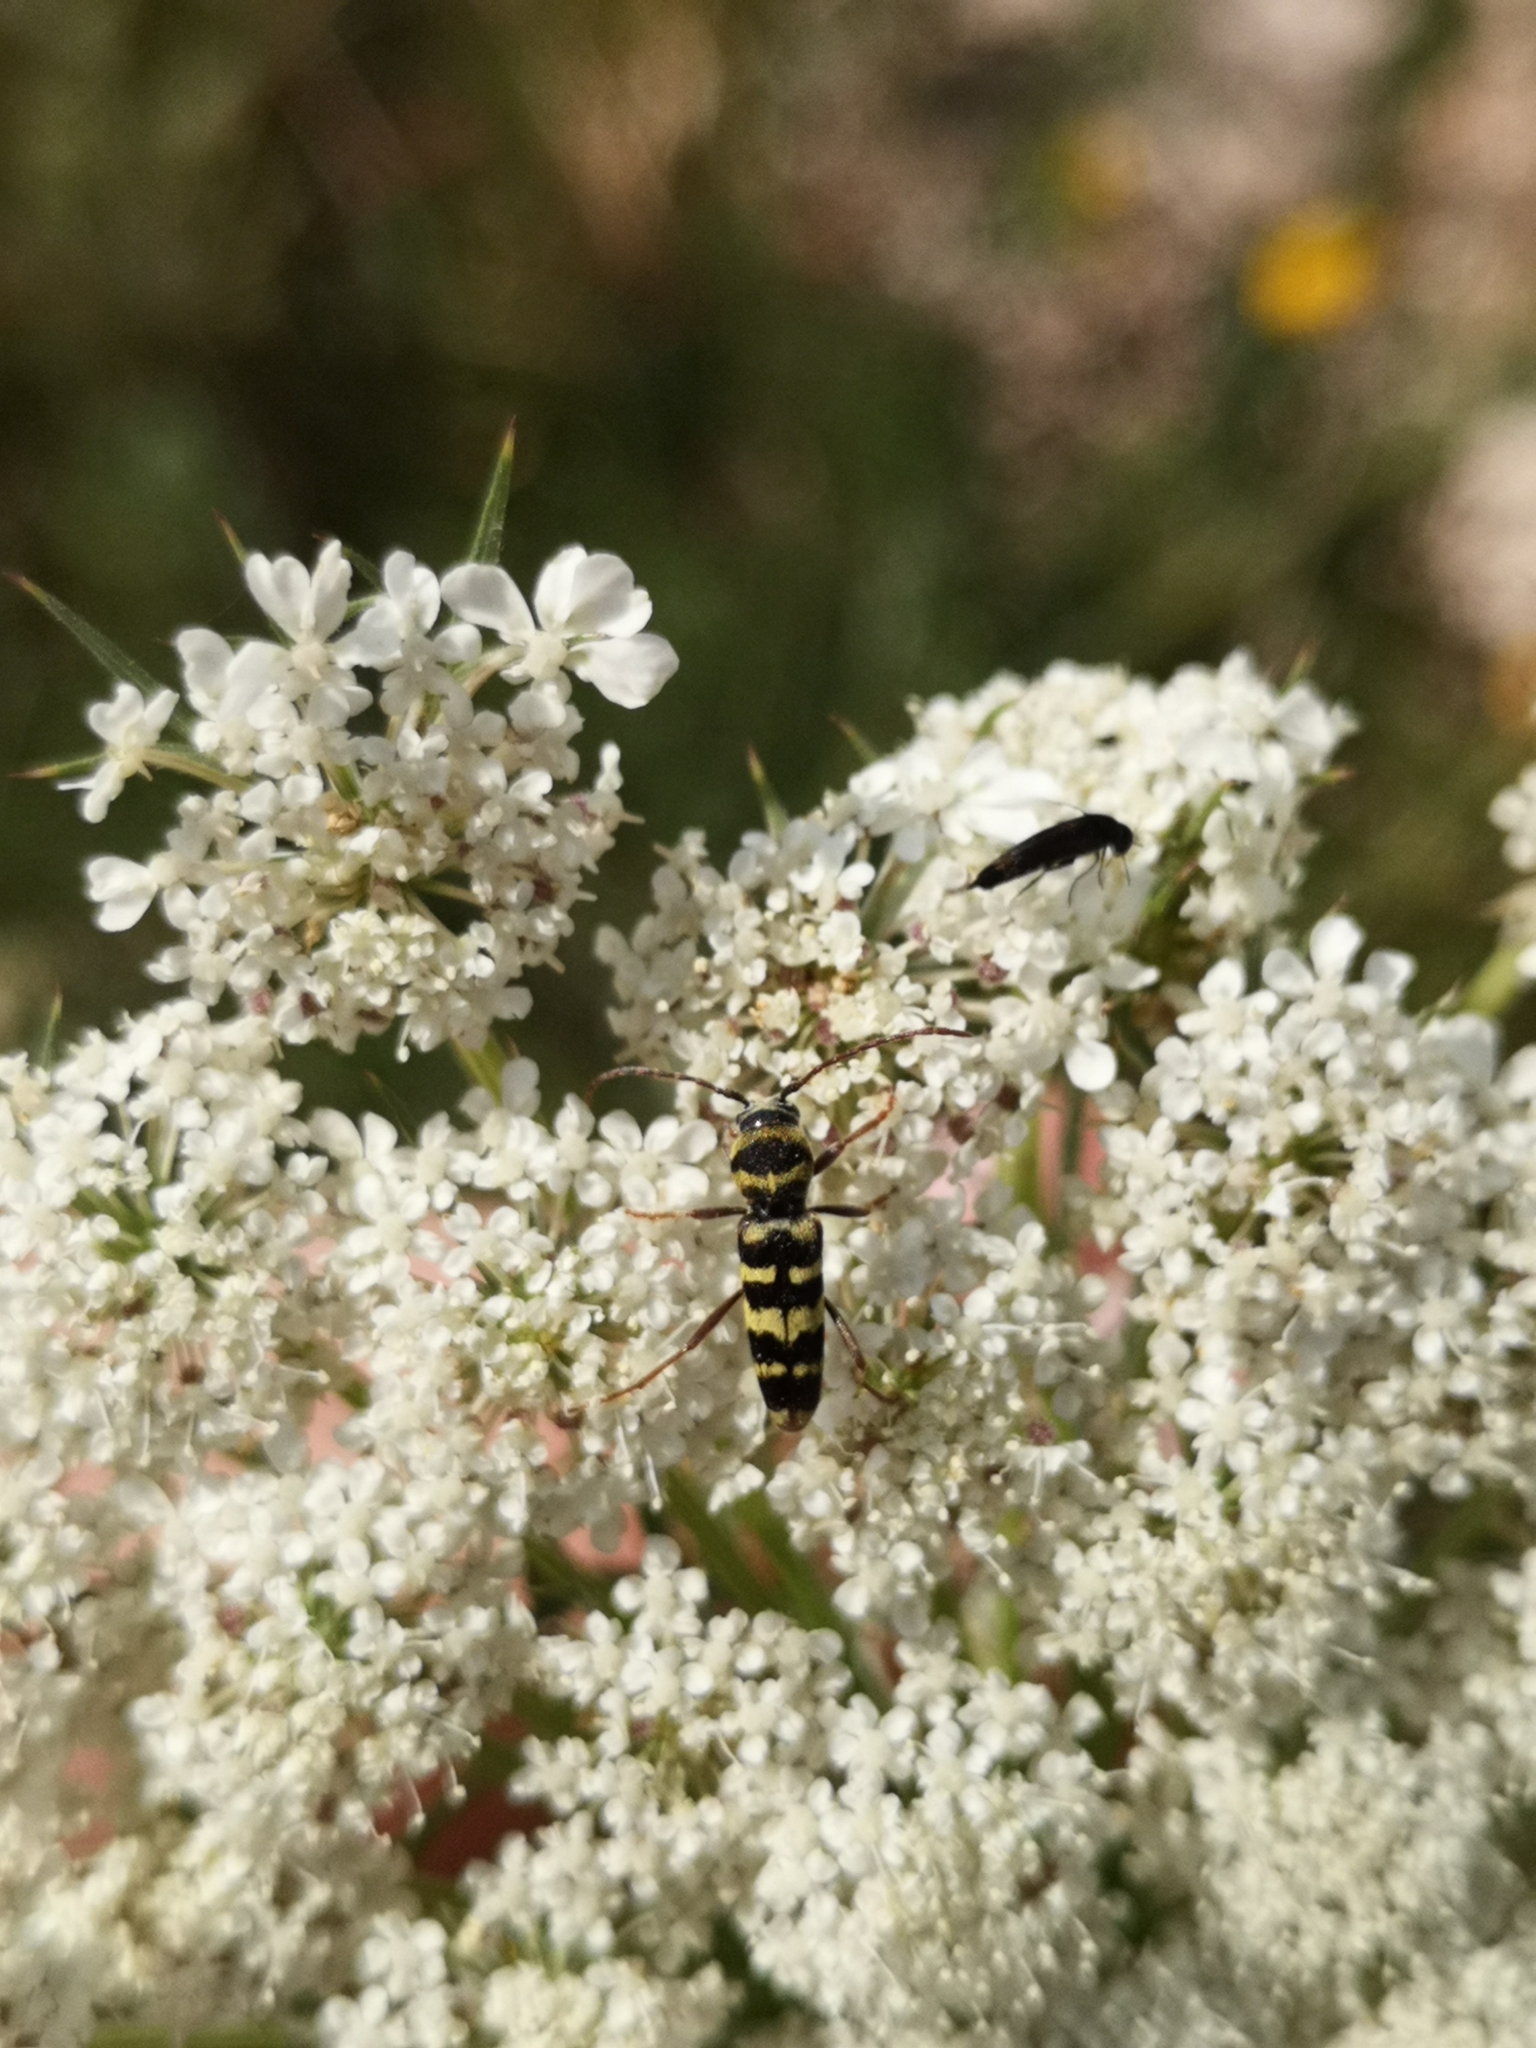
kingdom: Animalia
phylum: Arthropoda
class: Insecta
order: Coleoptera
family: Cerambycidae
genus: Plagionotus
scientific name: Plagionotus floralis
